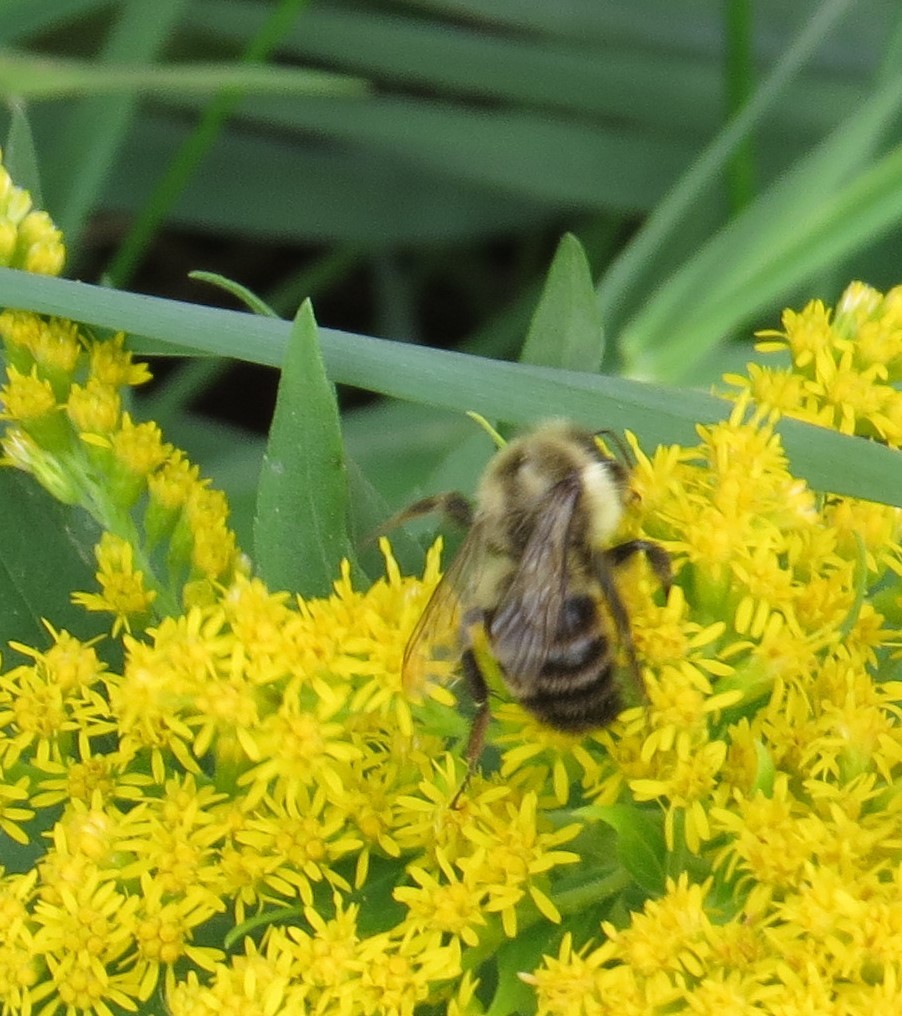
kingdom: Animalia
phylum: Arthropoda
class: Insecta
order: Hymenoptera
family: Apidae
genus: Bombus
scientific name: Bombus impatiens
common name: Common eastern bumble bee
